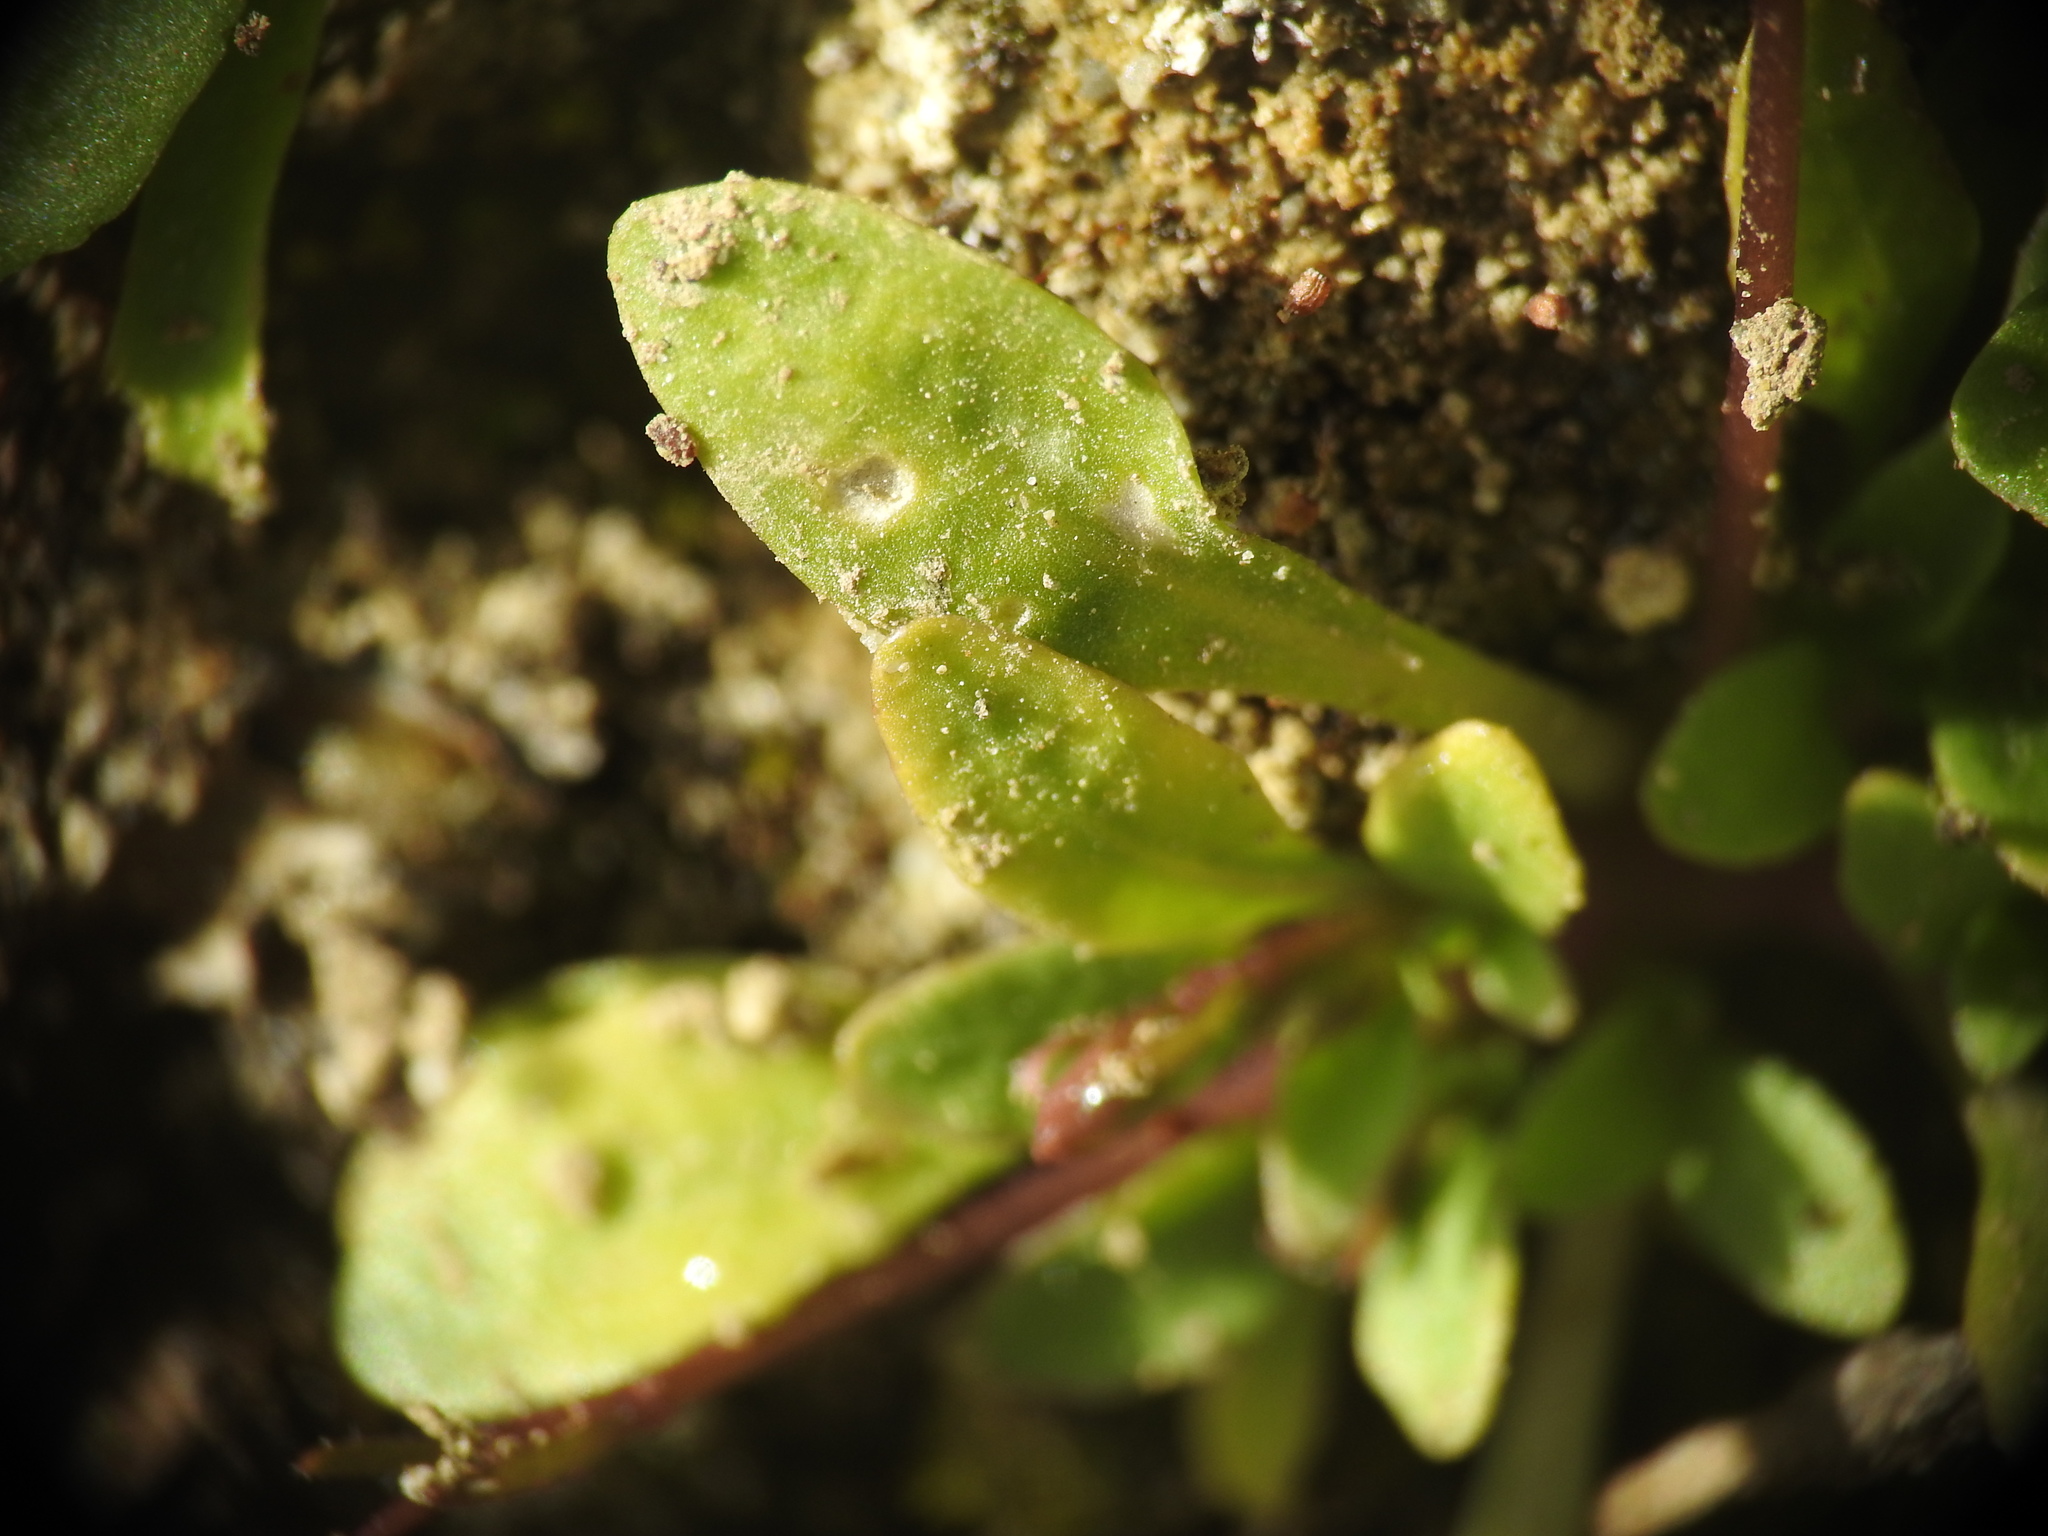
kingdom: Plantae
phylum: Tracheophyta
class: Magnoliopsida
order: Asterales
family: Campanulaceae
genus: Solenopsis
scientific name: Solenopsis minuta
